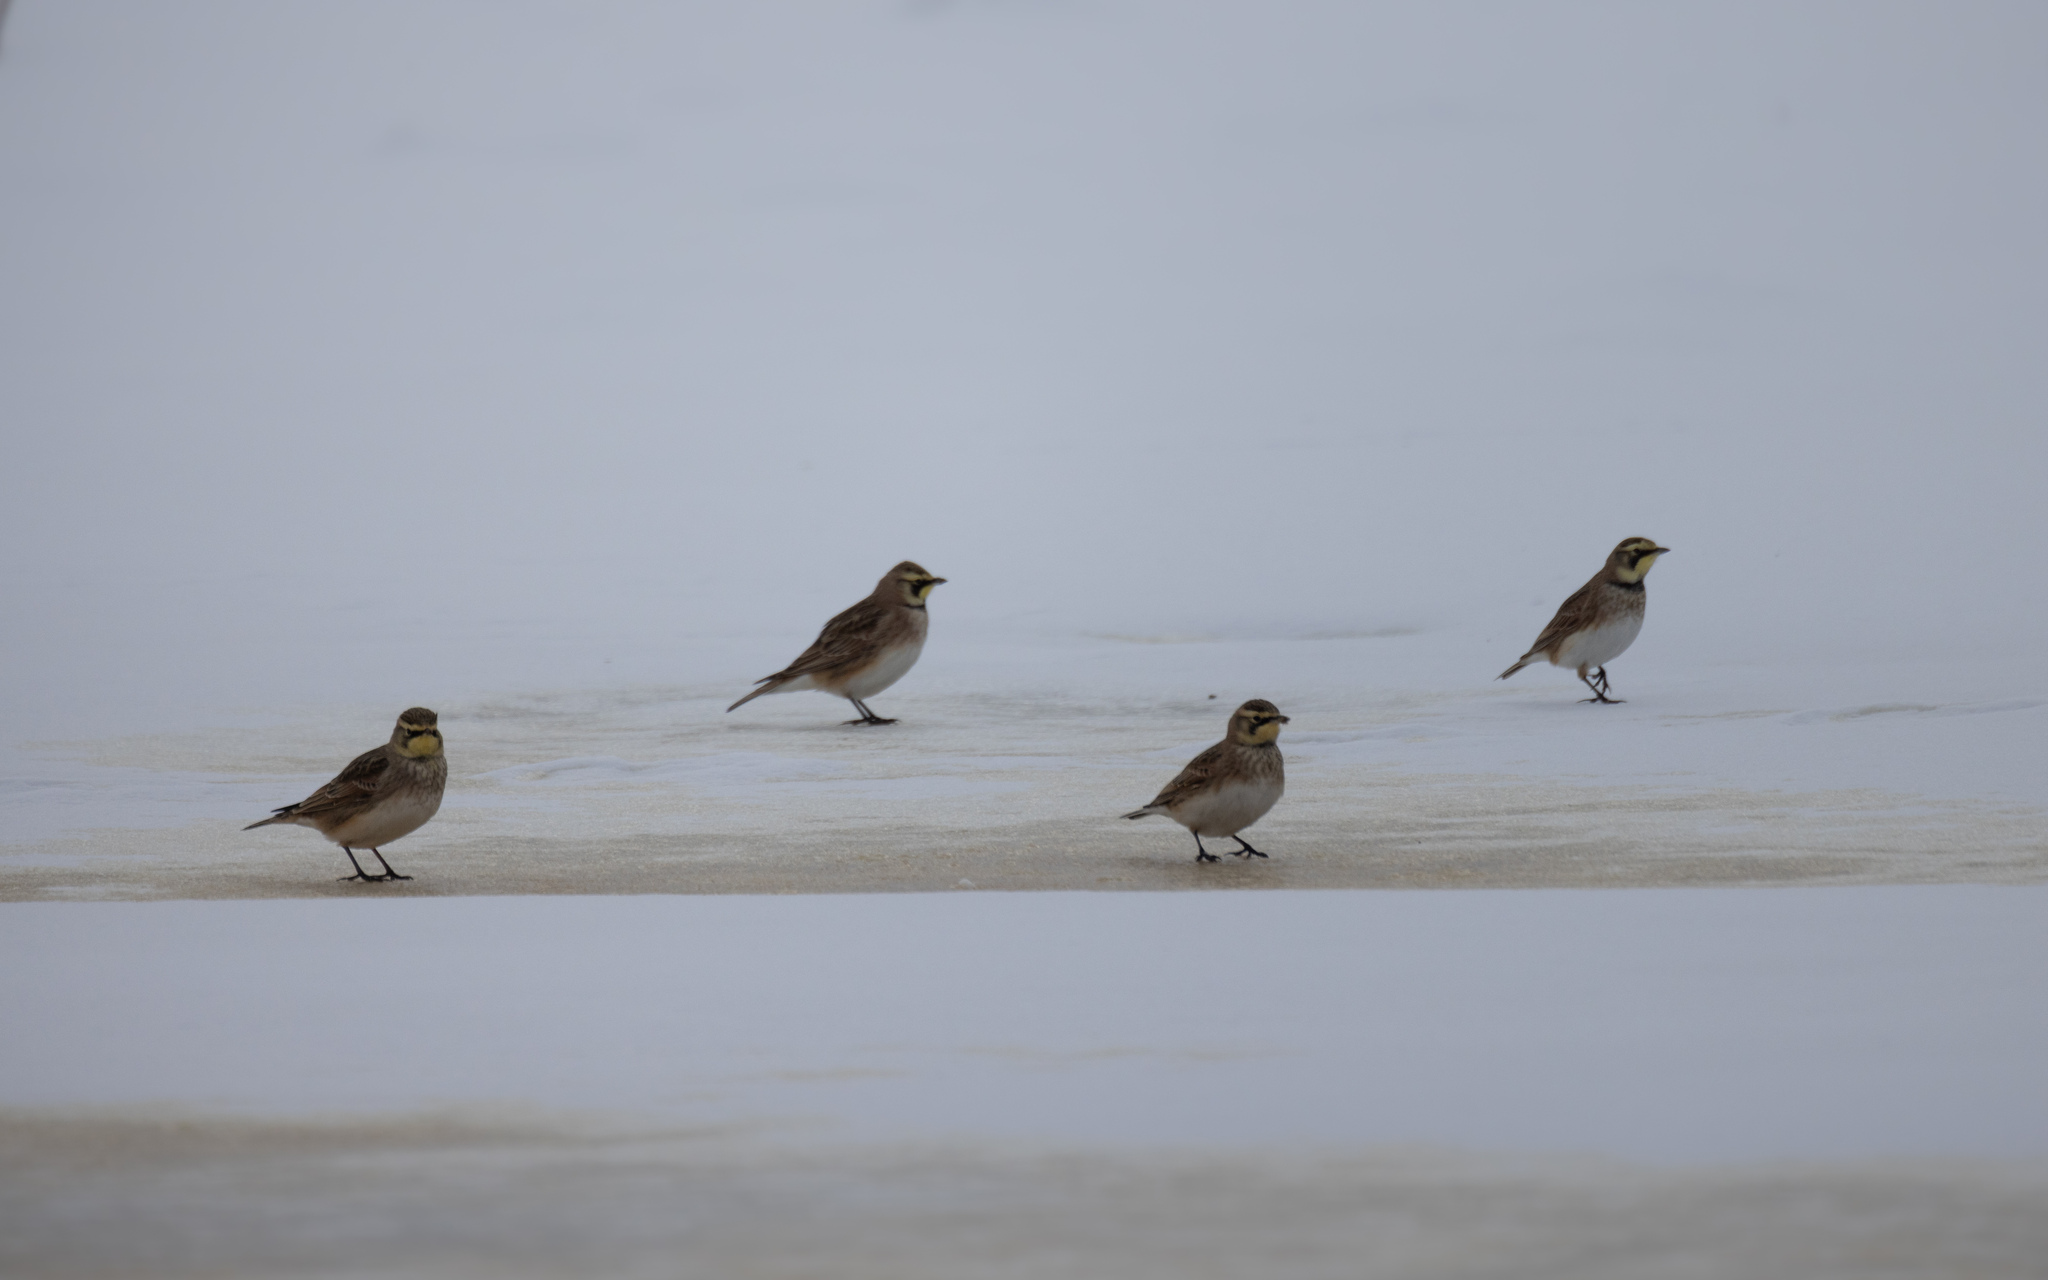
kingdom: Animalia
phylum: Chordata
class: Aves
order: Passeriformes
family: Alaudidae
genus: Eremophila
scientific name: Eremophila alpestris
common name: Horned lark
